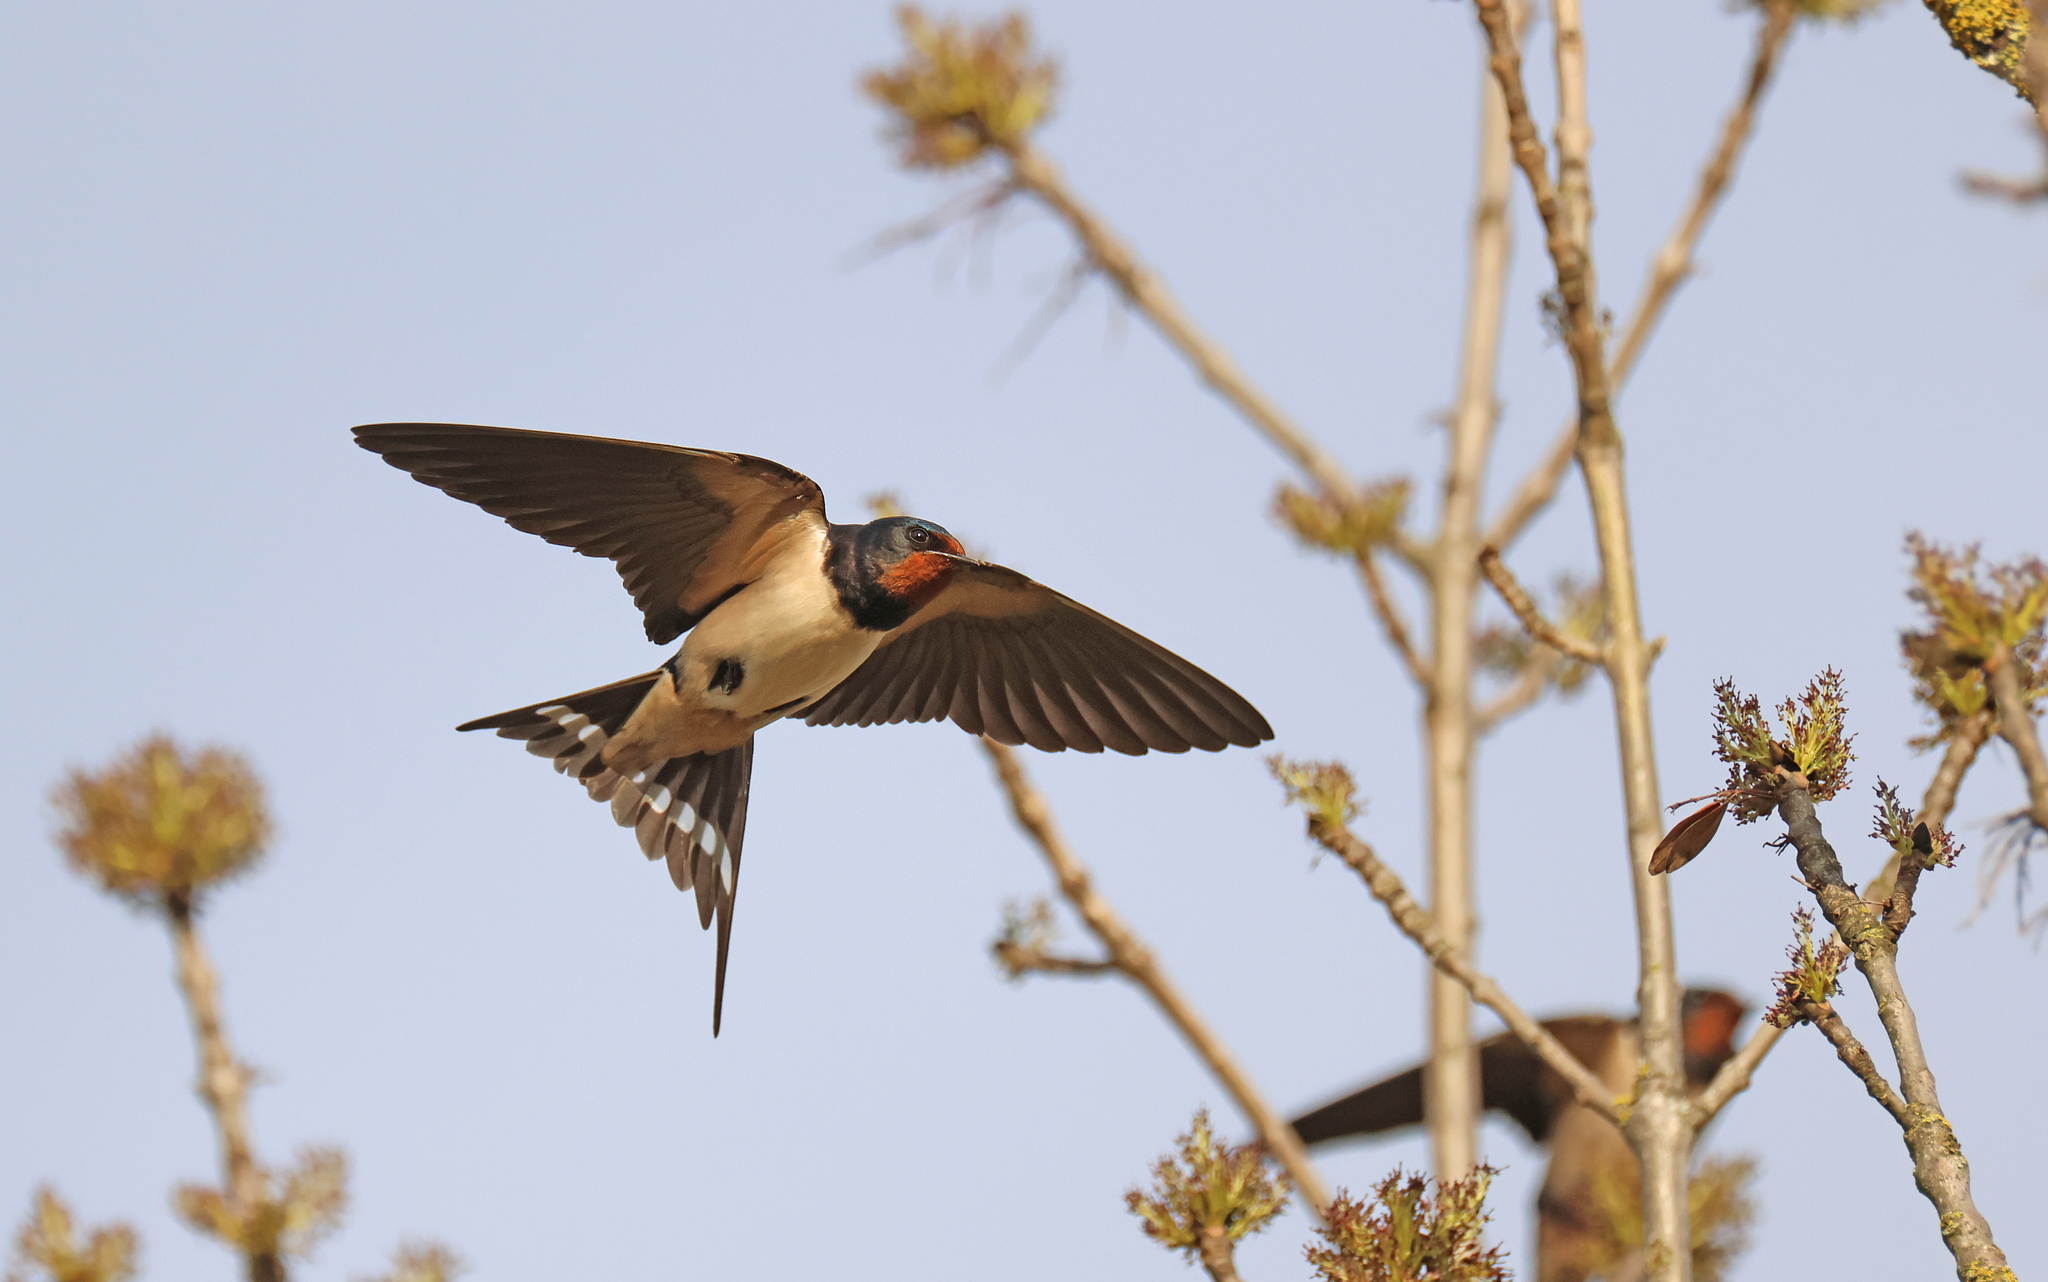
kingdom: Animalia
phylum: Chordata
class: Aves
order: Passeriformes
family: Hirundinidae
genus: Hirundo
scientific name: Hirundo rustica
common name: Barn swallow
